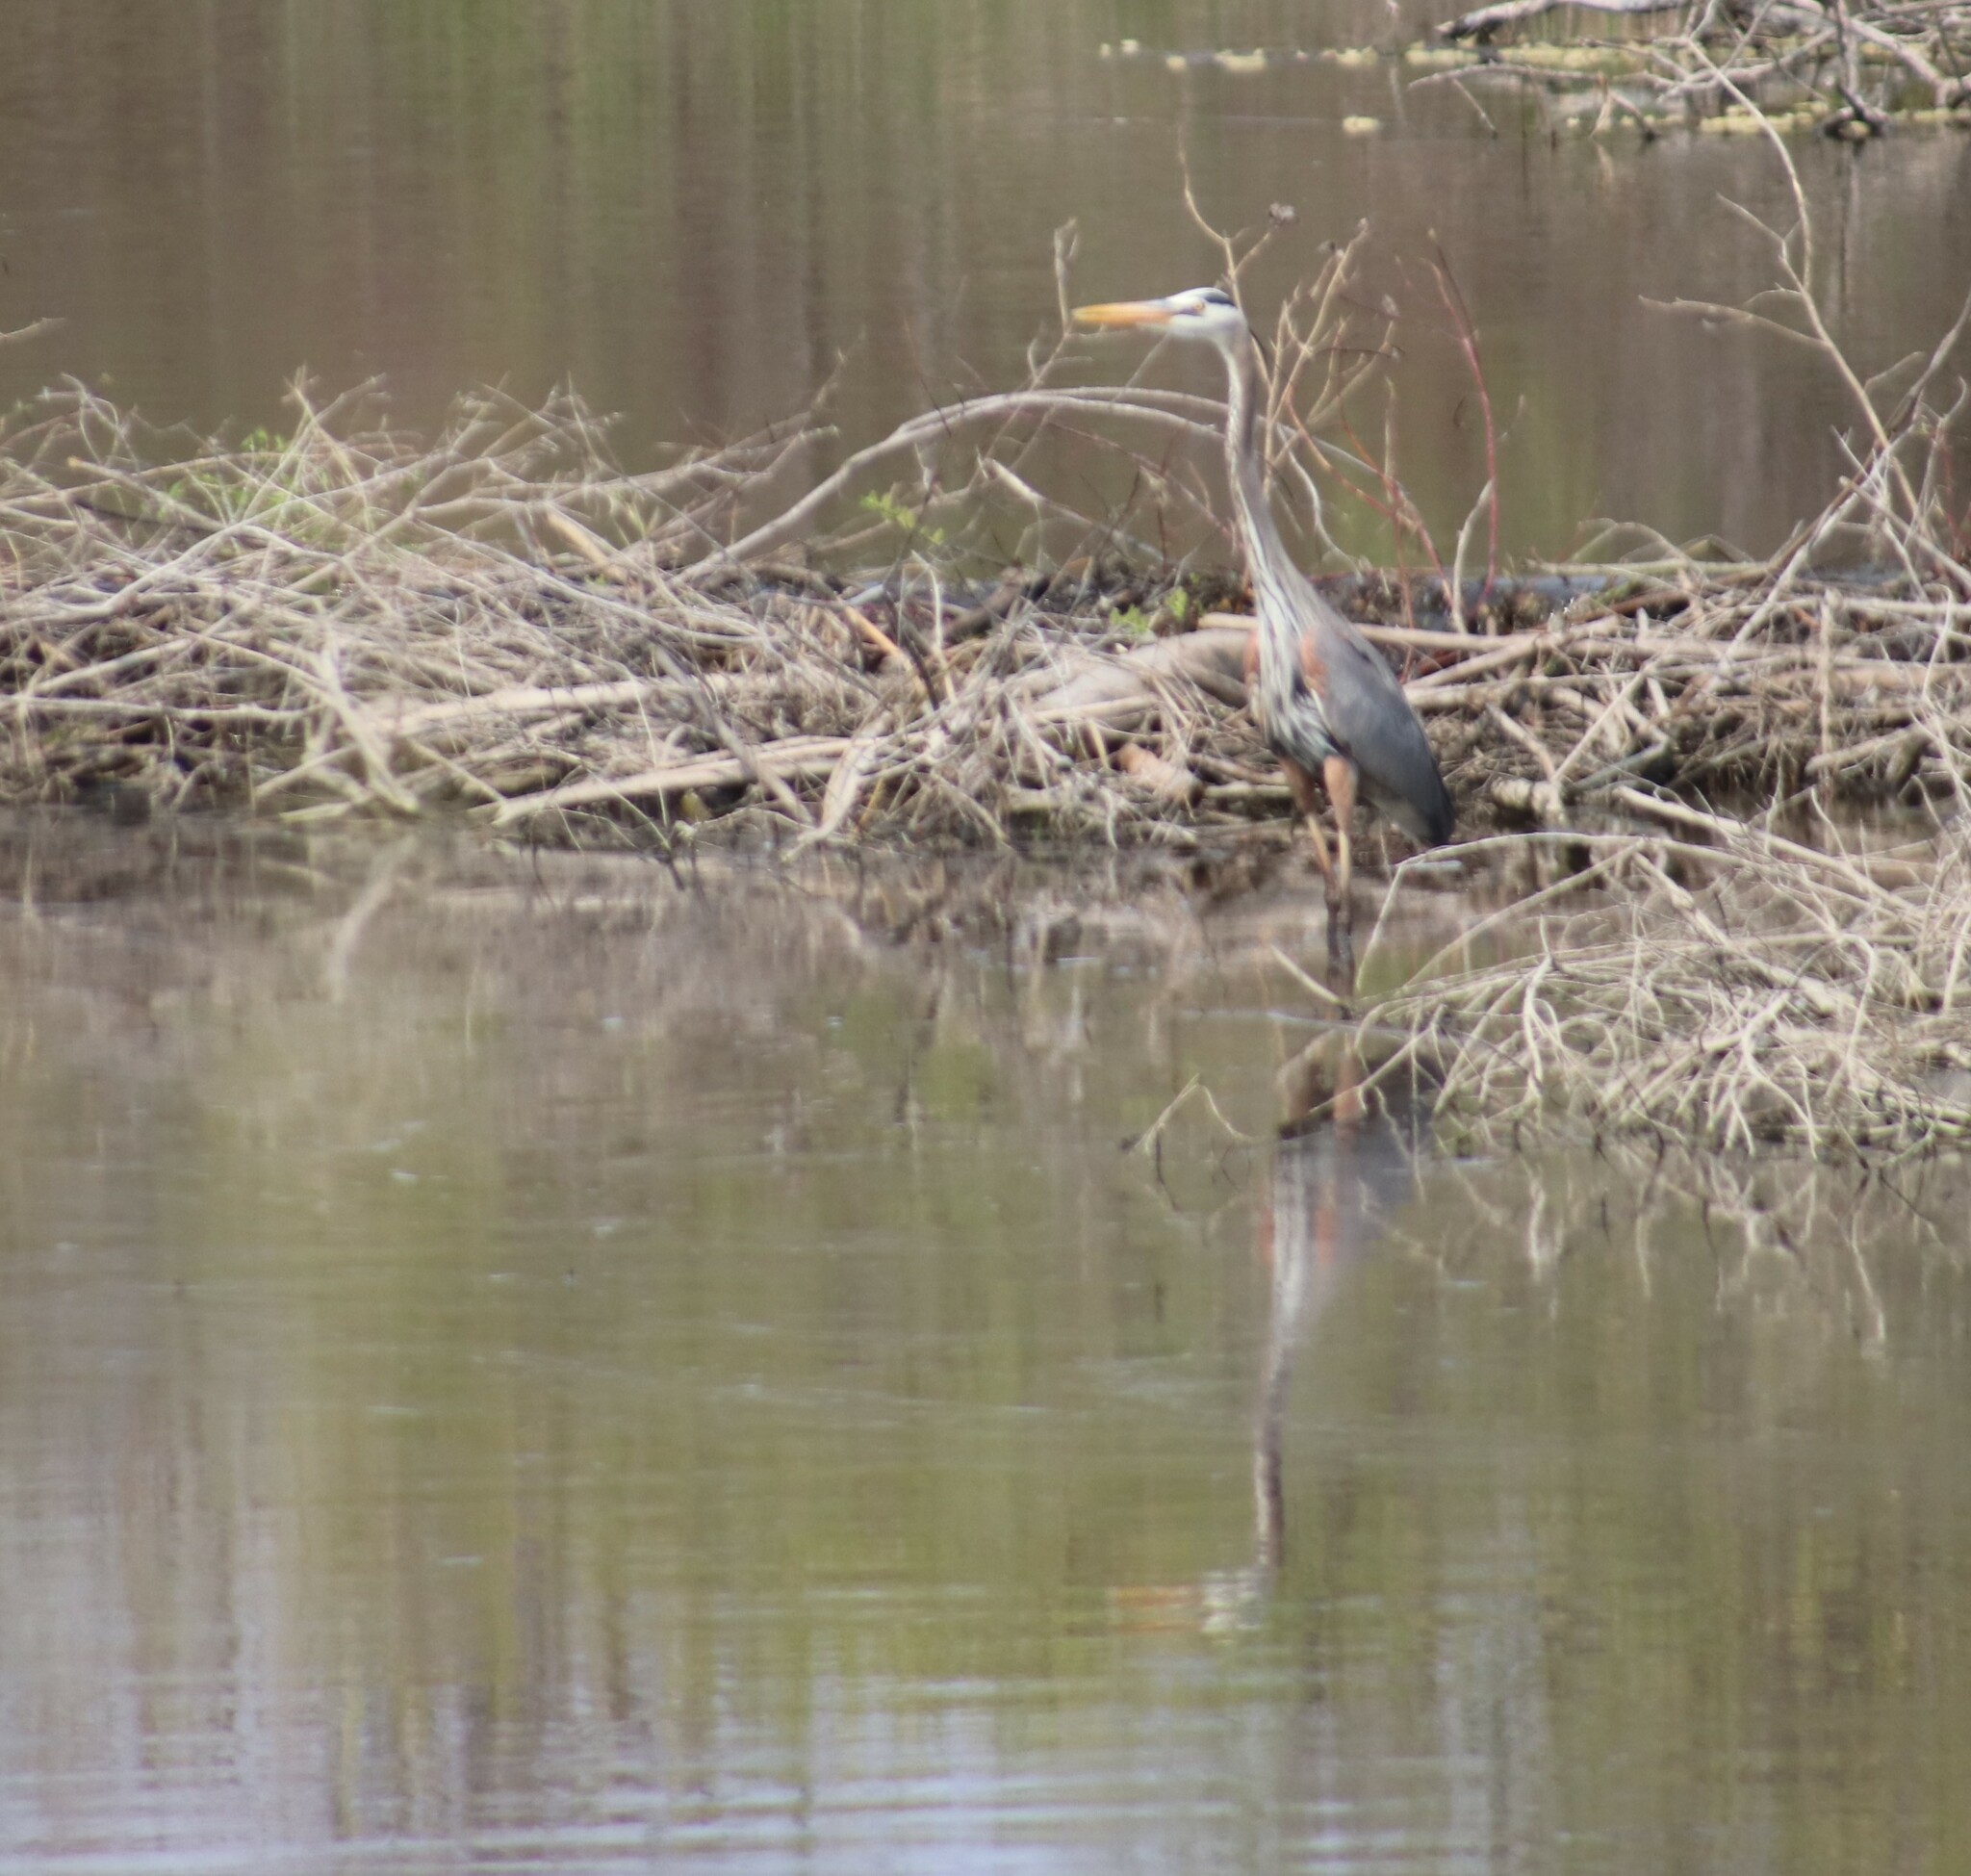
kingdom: Animalia
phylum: Chordata
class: Aves
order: Pelecaniformes
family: Ardeidae
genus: Ardea
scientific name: Ardea herodias
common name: Great blue heron
